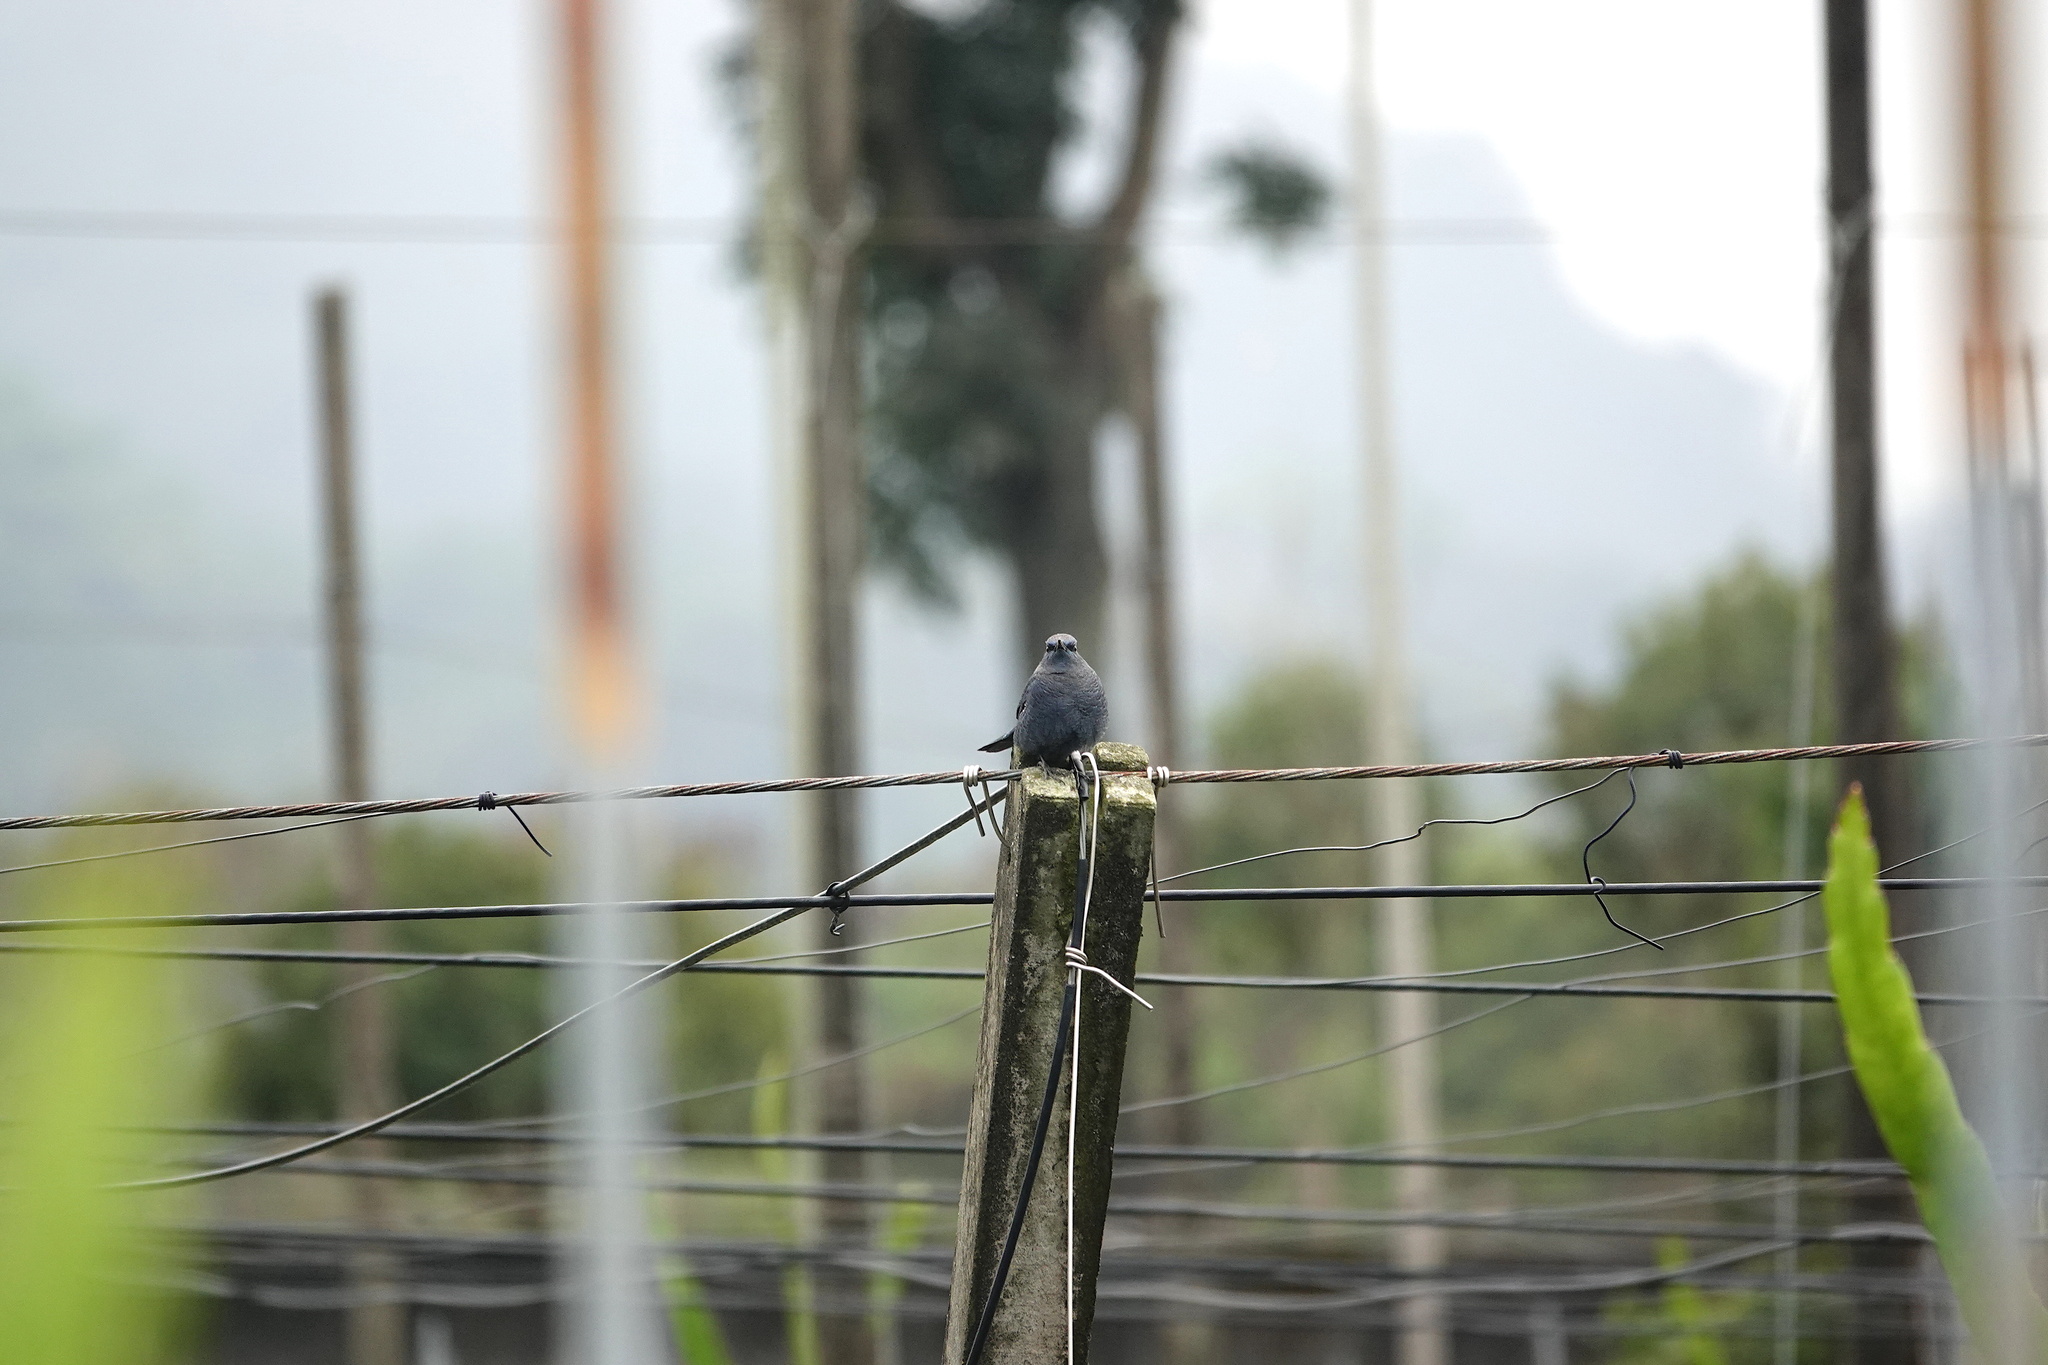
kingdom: Animalia
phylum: Chordata
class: Aves
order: Passeriformes
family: Muscicapidae
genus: Monticola
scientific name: Monticola solitarius
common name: Blue rock thrush
